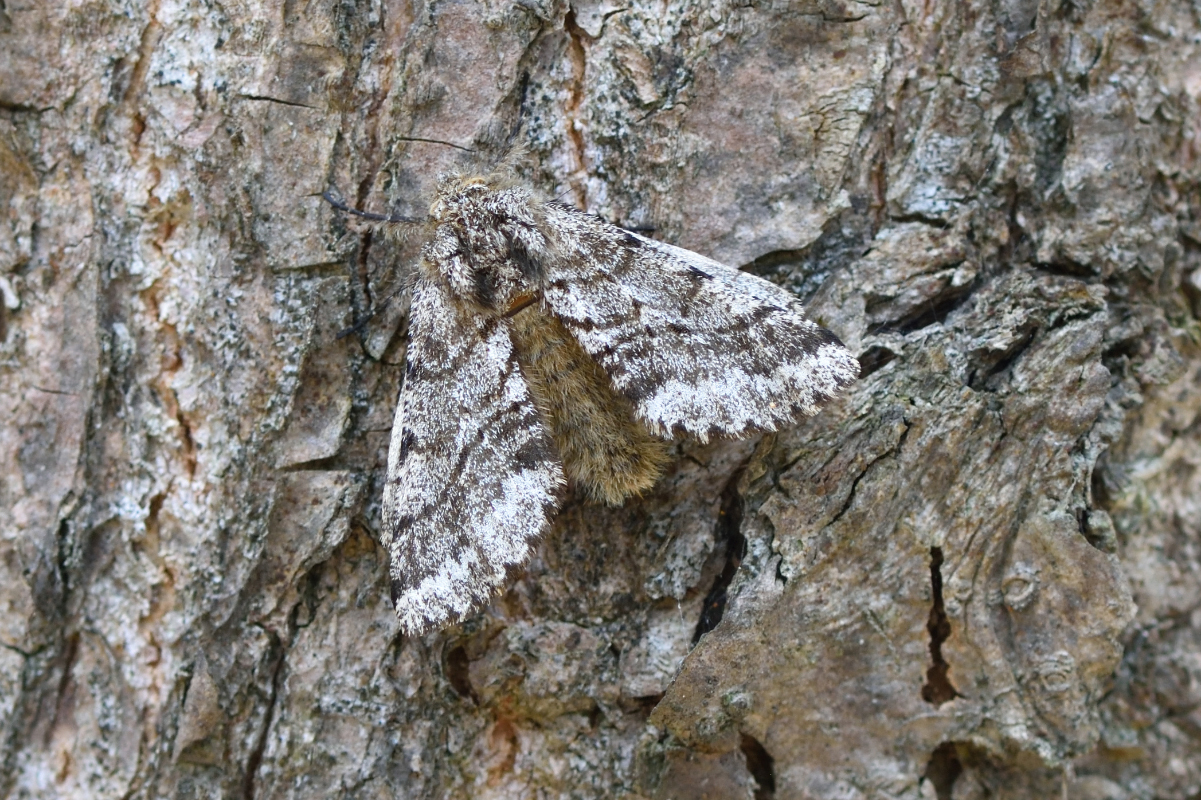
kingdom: Animalia
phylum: Arthropoda
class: Insecta
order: Lepidoptera
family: Geometridae
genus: Lycia
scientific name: Lycia hirtaria
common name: Brindled beauty
